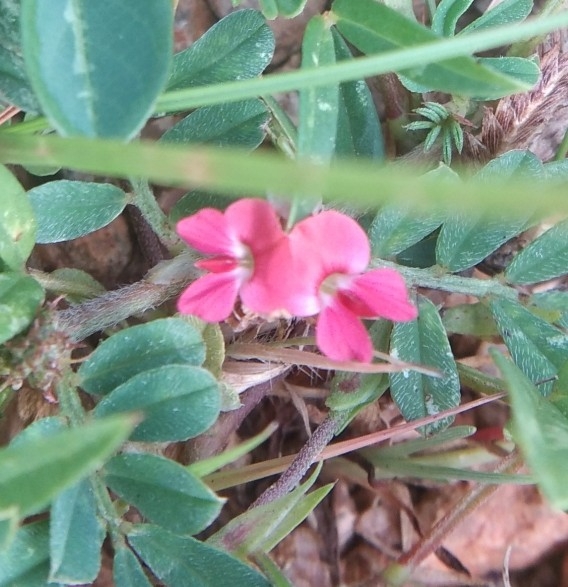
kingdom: Plantae
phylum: Tracheophyta
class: Magnoliopsida
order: Fabales
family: Fabaceae
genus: Indigofera
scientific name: Indigofera tinctoria
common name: True indigo
